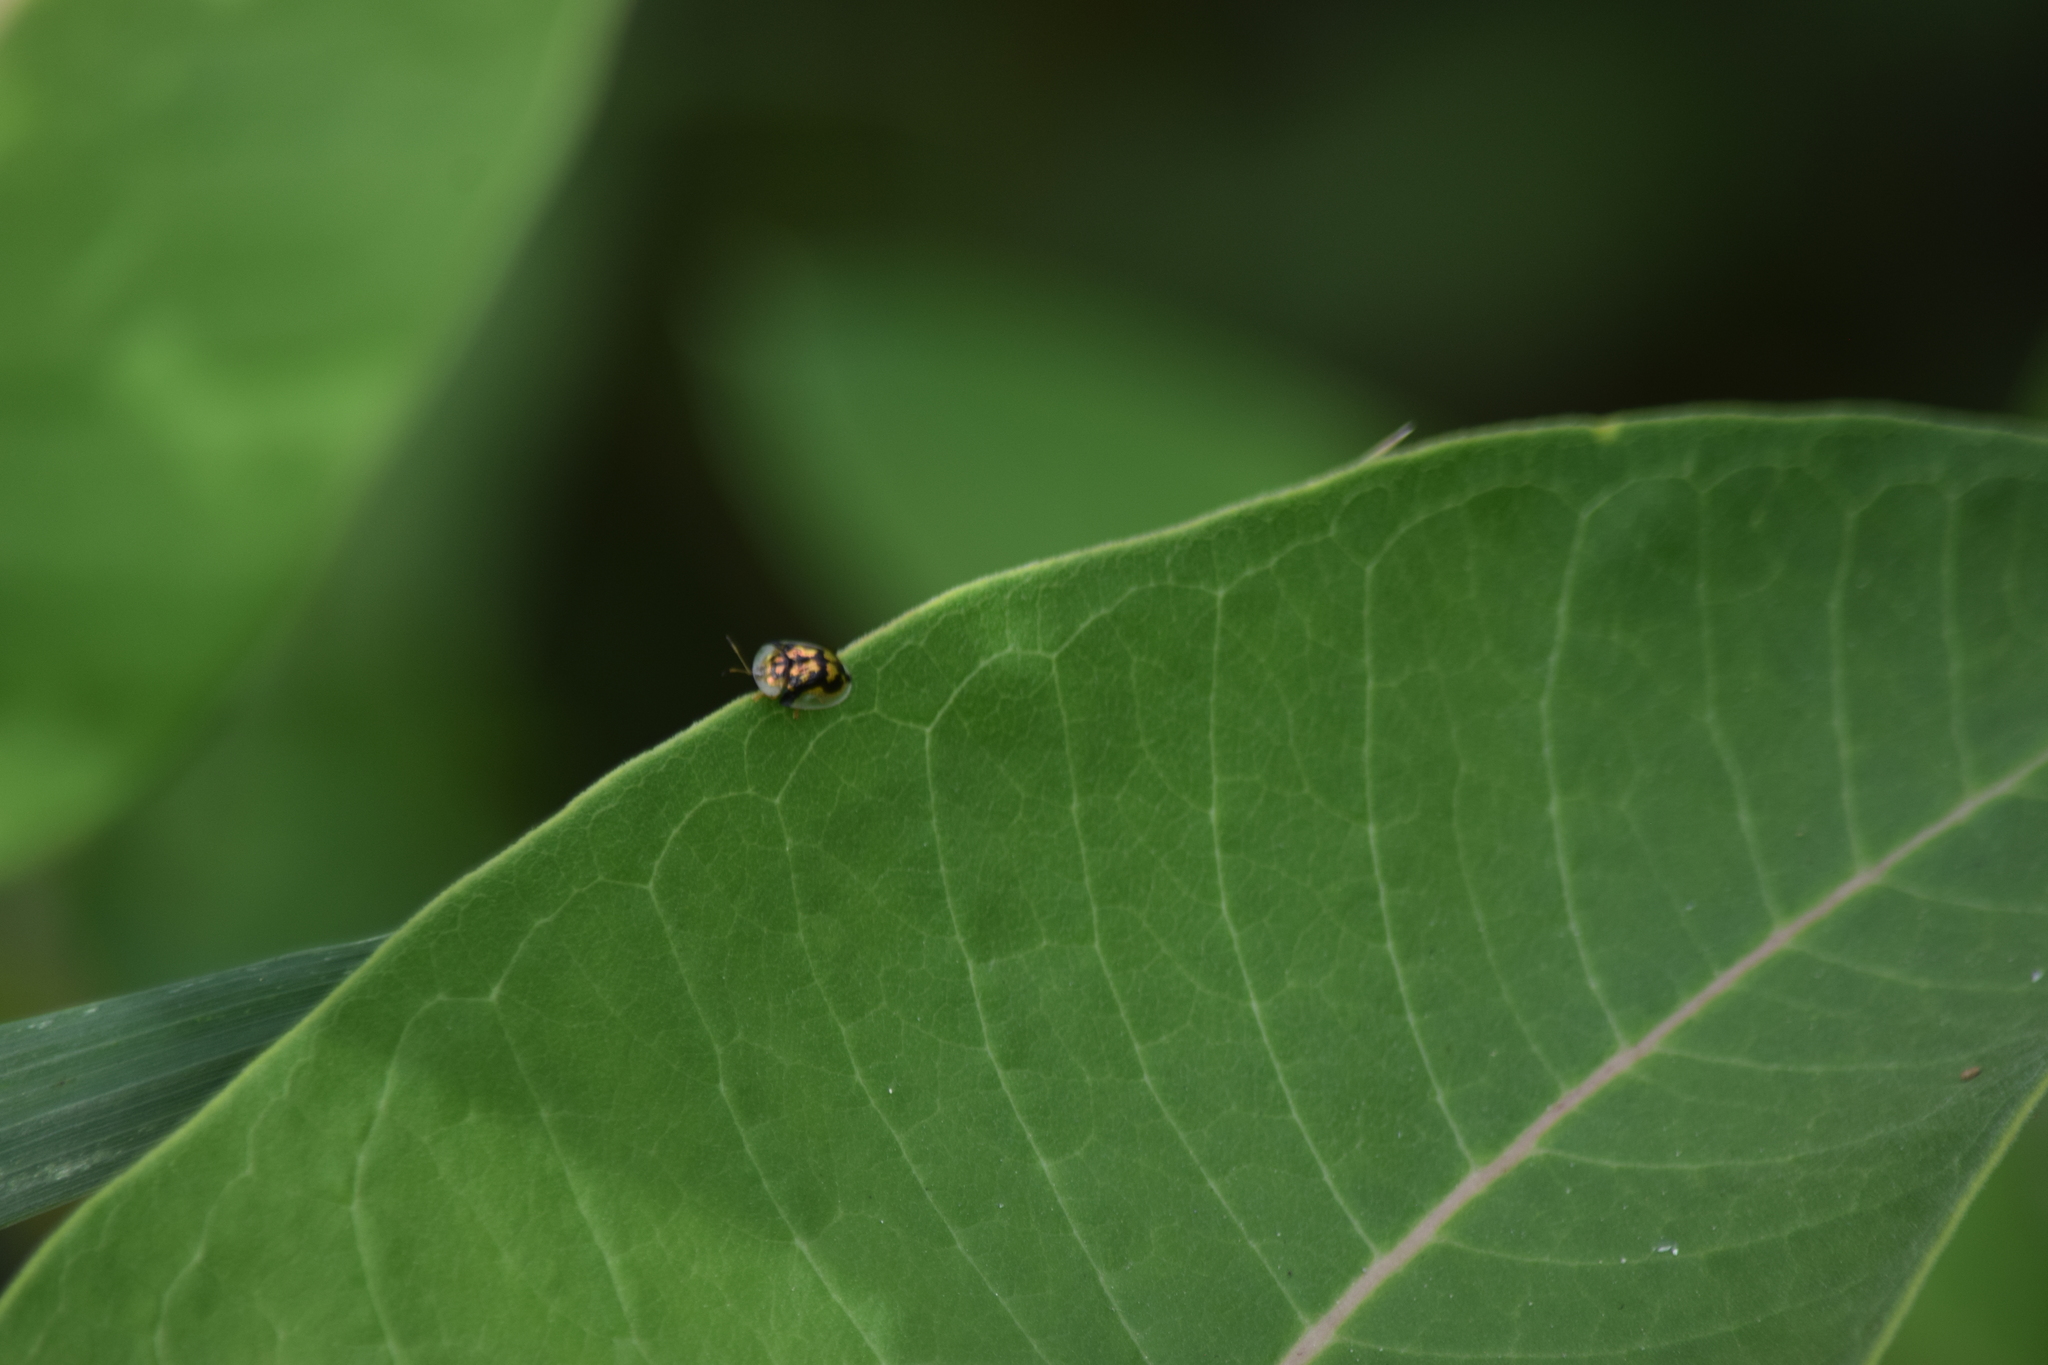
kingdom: Animalia
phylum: Arthropoda
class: Insecta
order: Coleoptera
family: Chrysomelidae
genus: Deloyala
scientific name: Deloyala guttata
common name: Mottled tortoise beetle
